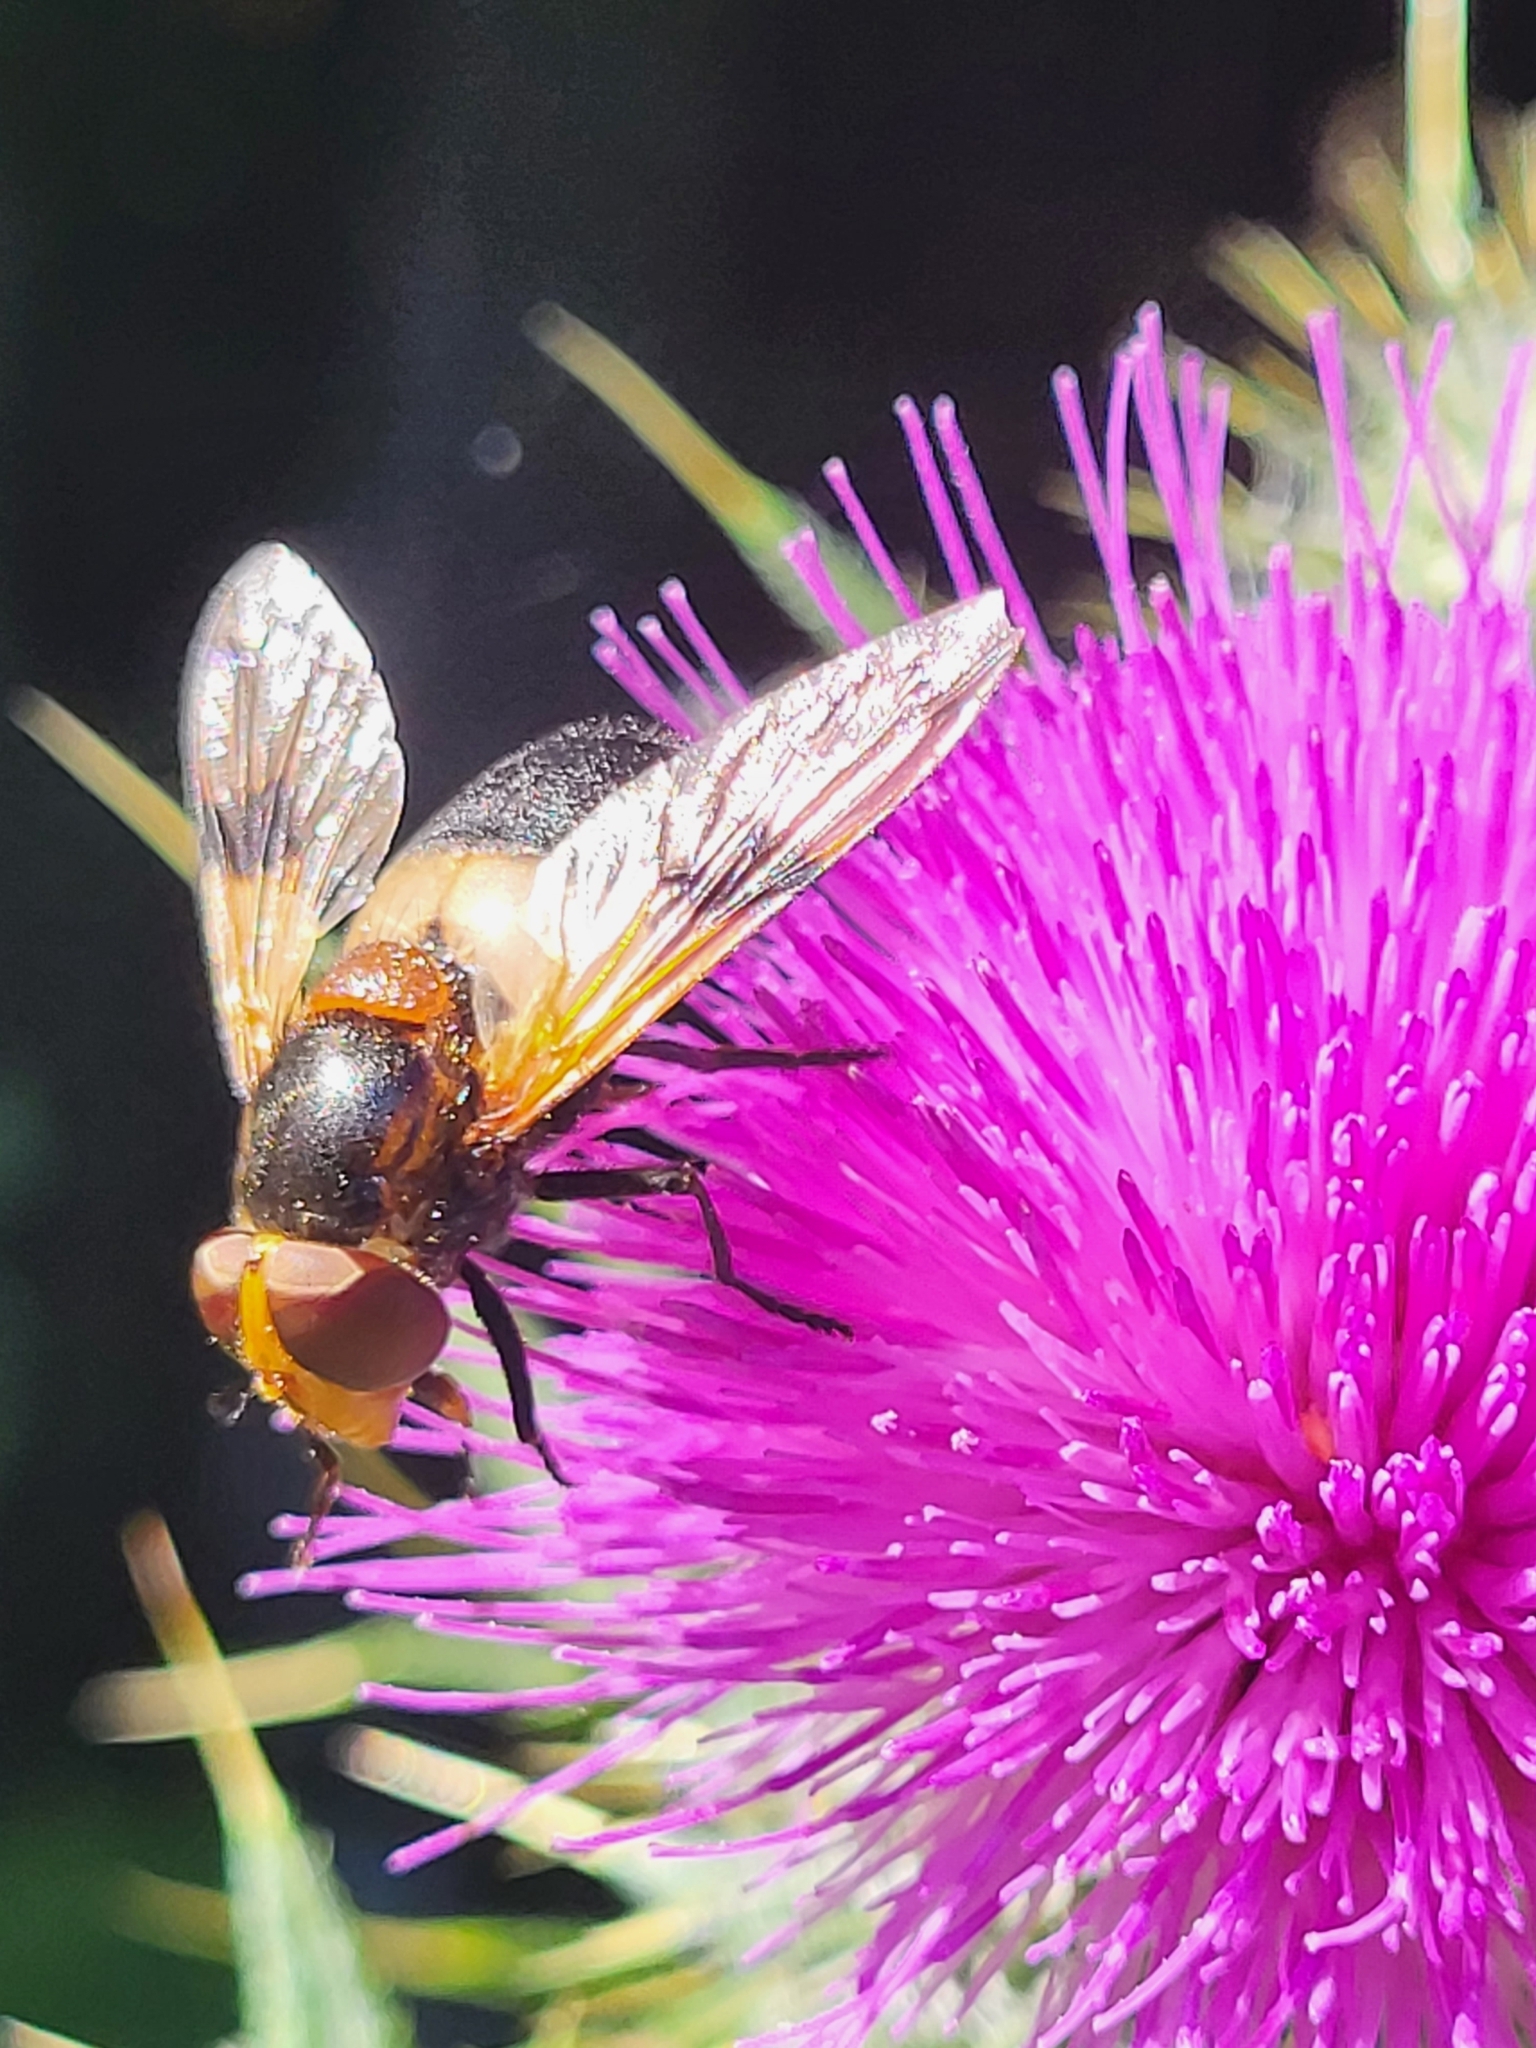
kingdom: Animalia
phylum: Arthropoda
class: Insecta
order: Diptera
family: Syrphidae
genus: Volucella
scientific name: Volucella pellucens
